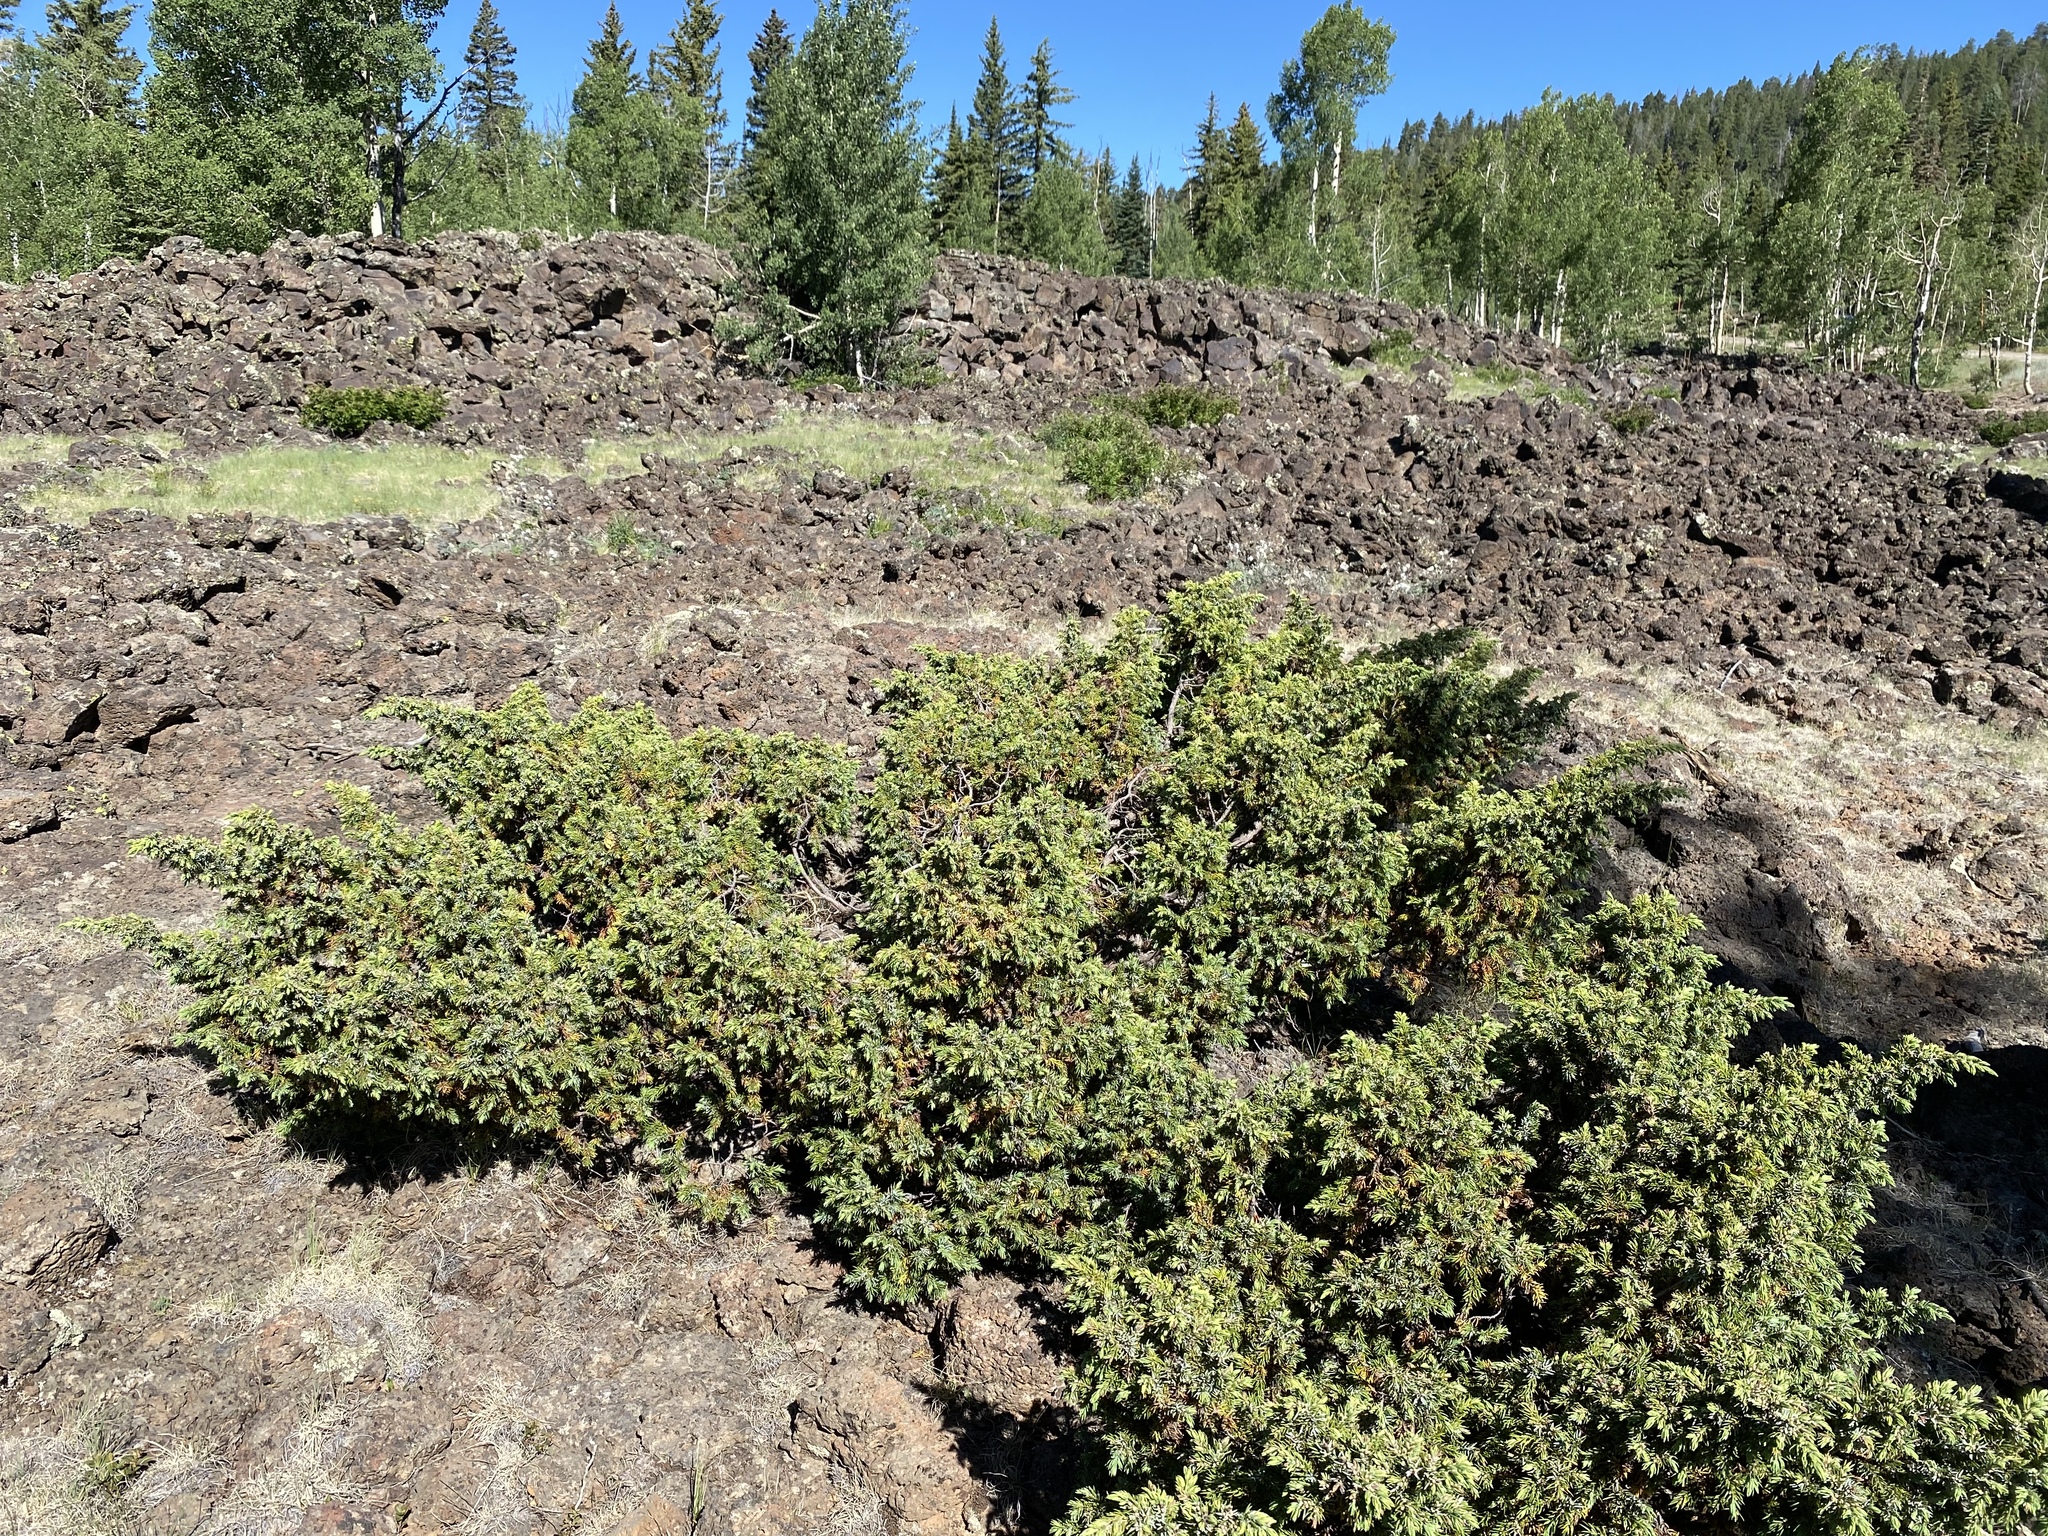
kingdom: Plantae
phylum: Tracheophyta
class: Pinopsida
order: Pinales
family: Cupressaceae
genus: Juniperus
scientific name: Juniperus communis
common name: Common juniper
